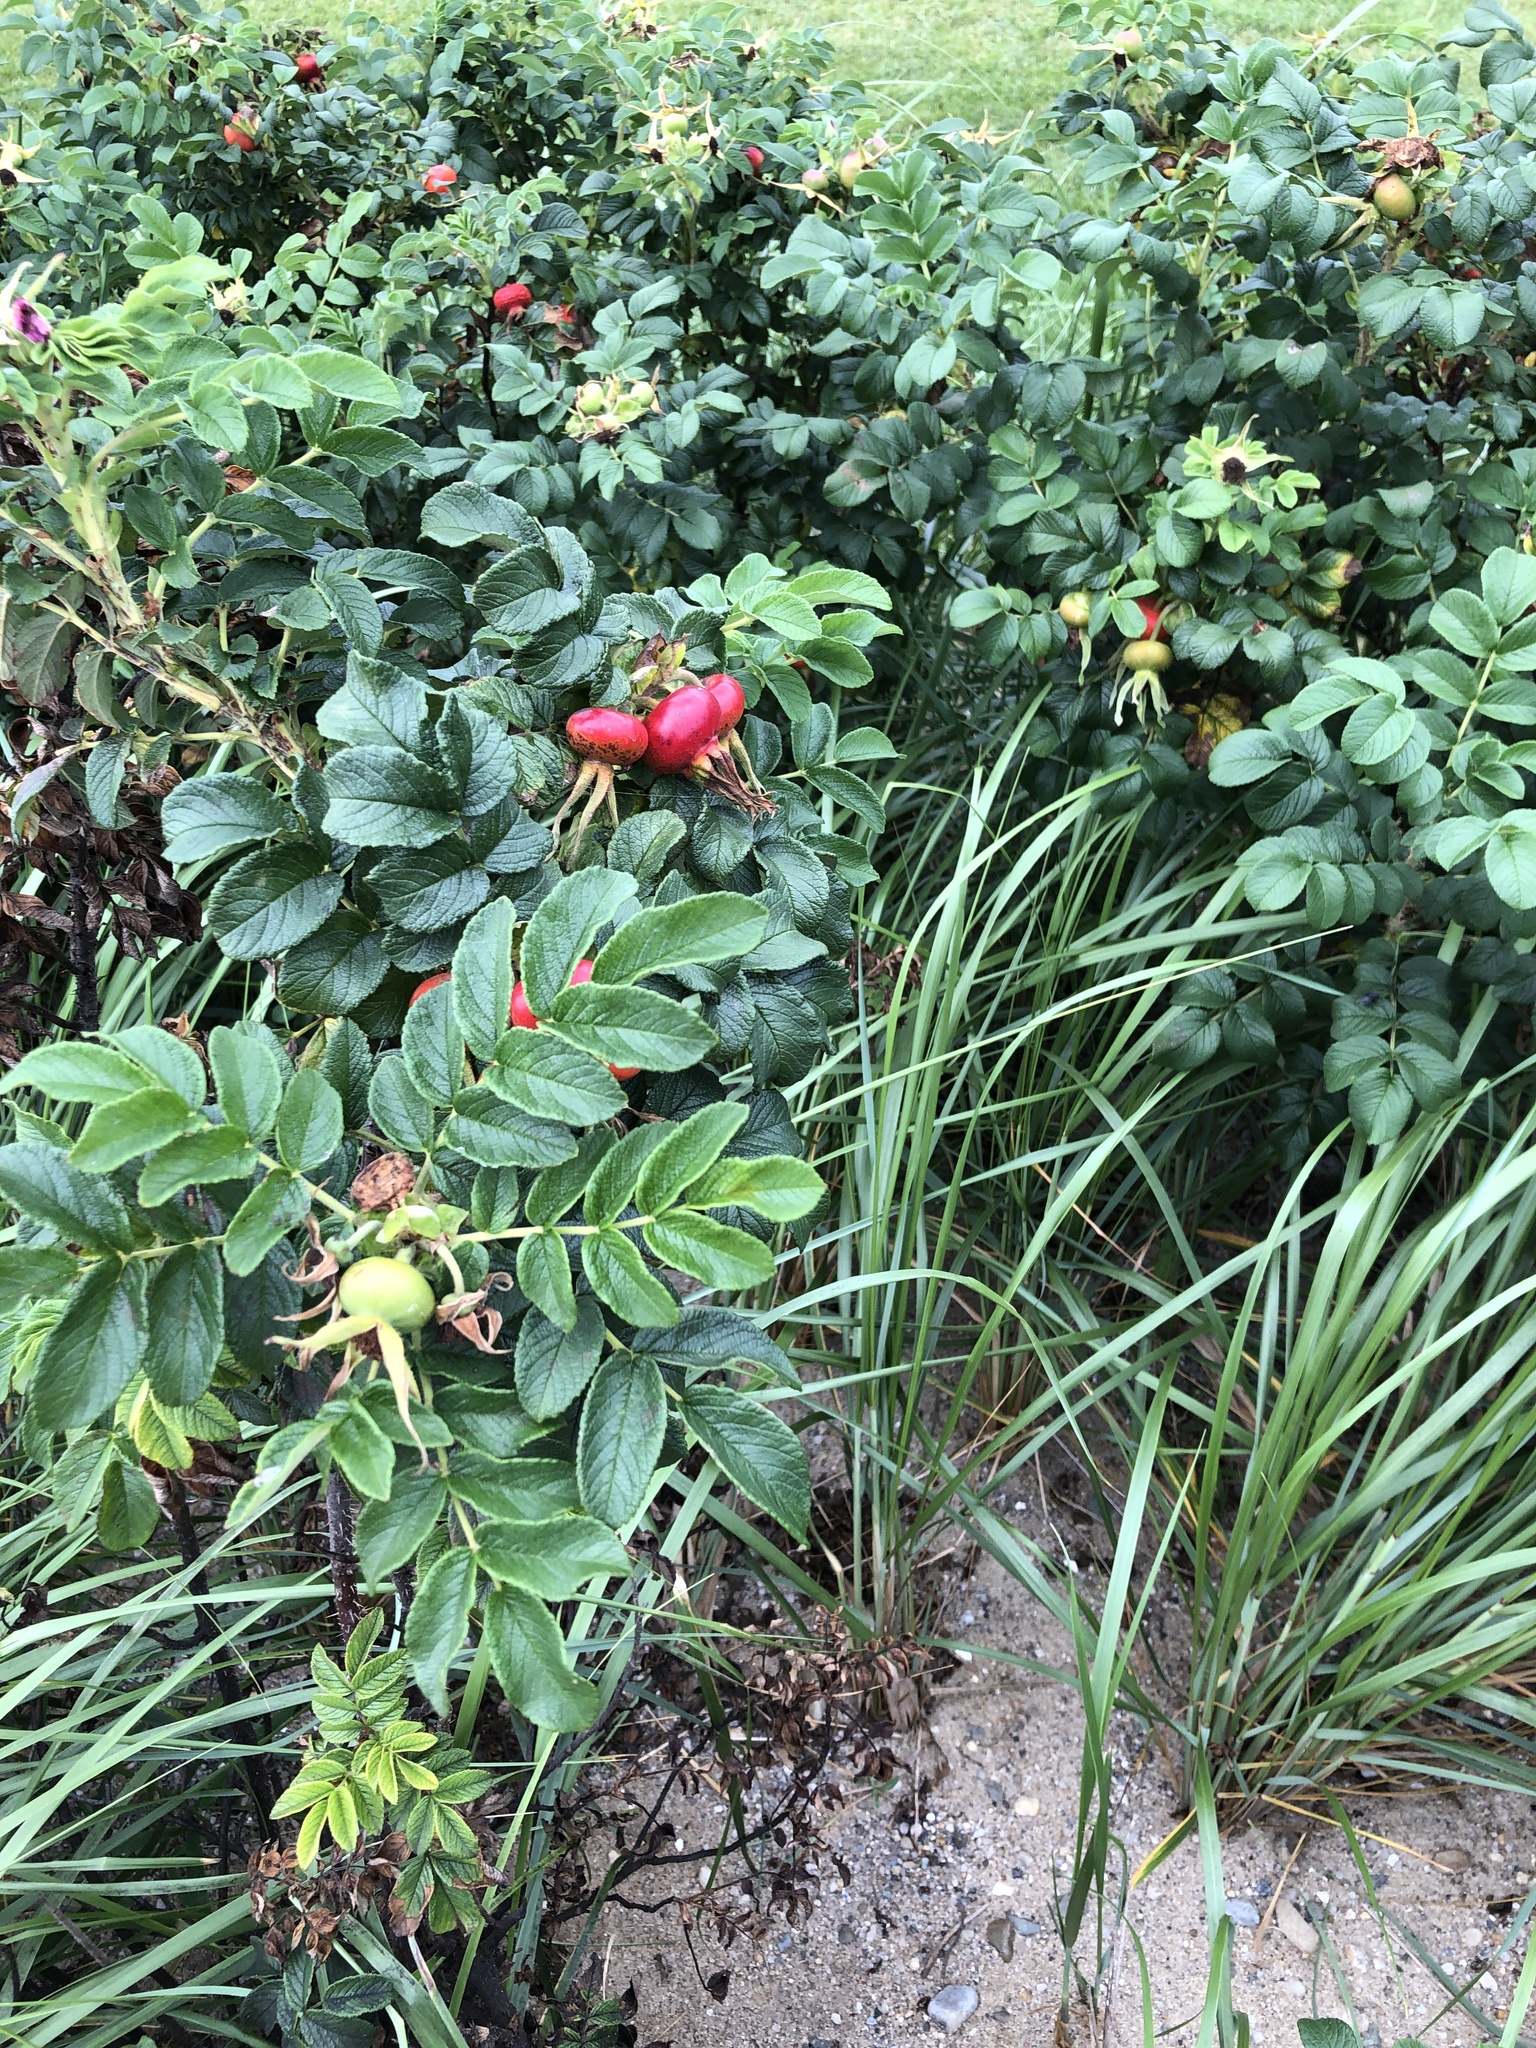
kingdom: Plantae
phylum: Tracheophyta
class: Magnoliopsida
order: Rosales
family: Rosaceae
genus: Rosa
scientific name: Rosa rugosa
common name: Japanese rose
